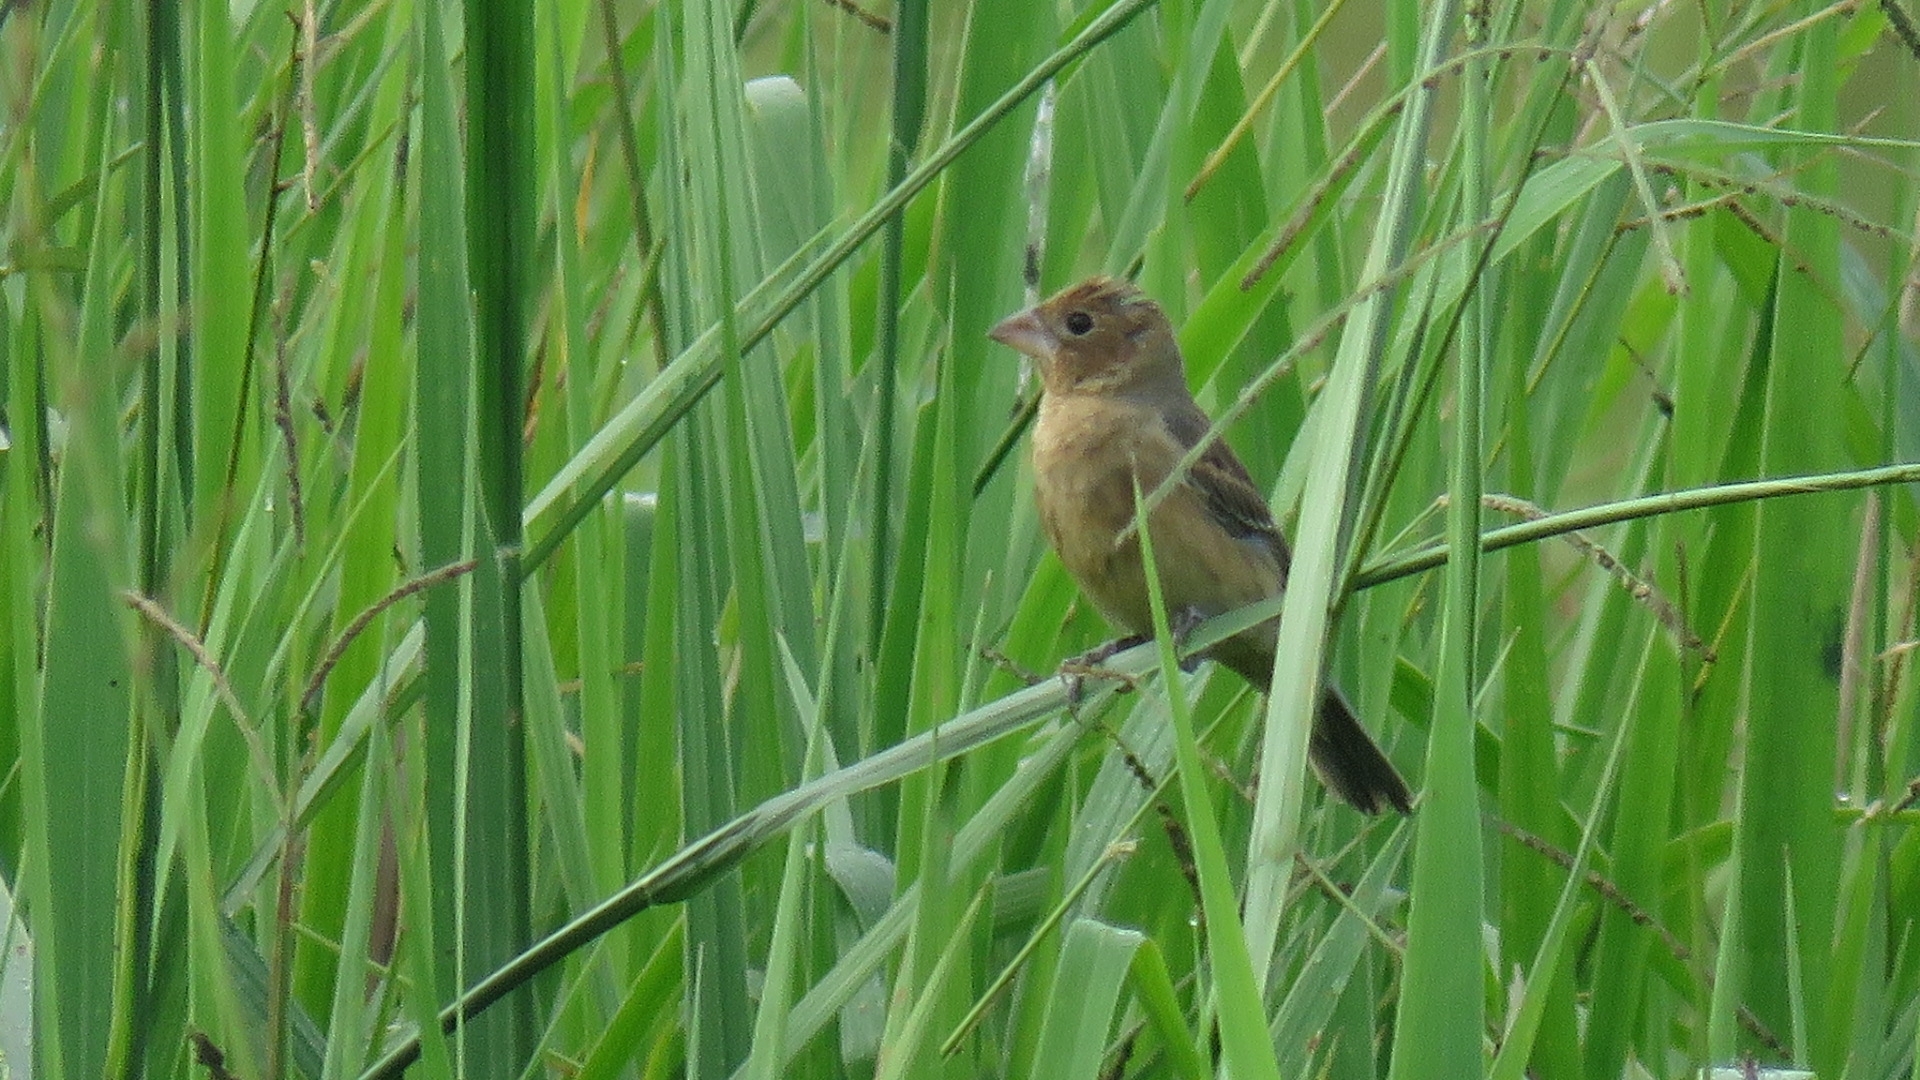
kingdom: Animalia
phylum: Chordata
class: Aves
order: Passeriformes
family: Cardinalidae
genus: Passerina
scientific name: Passerina caerulea
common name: Blue grosbeak
